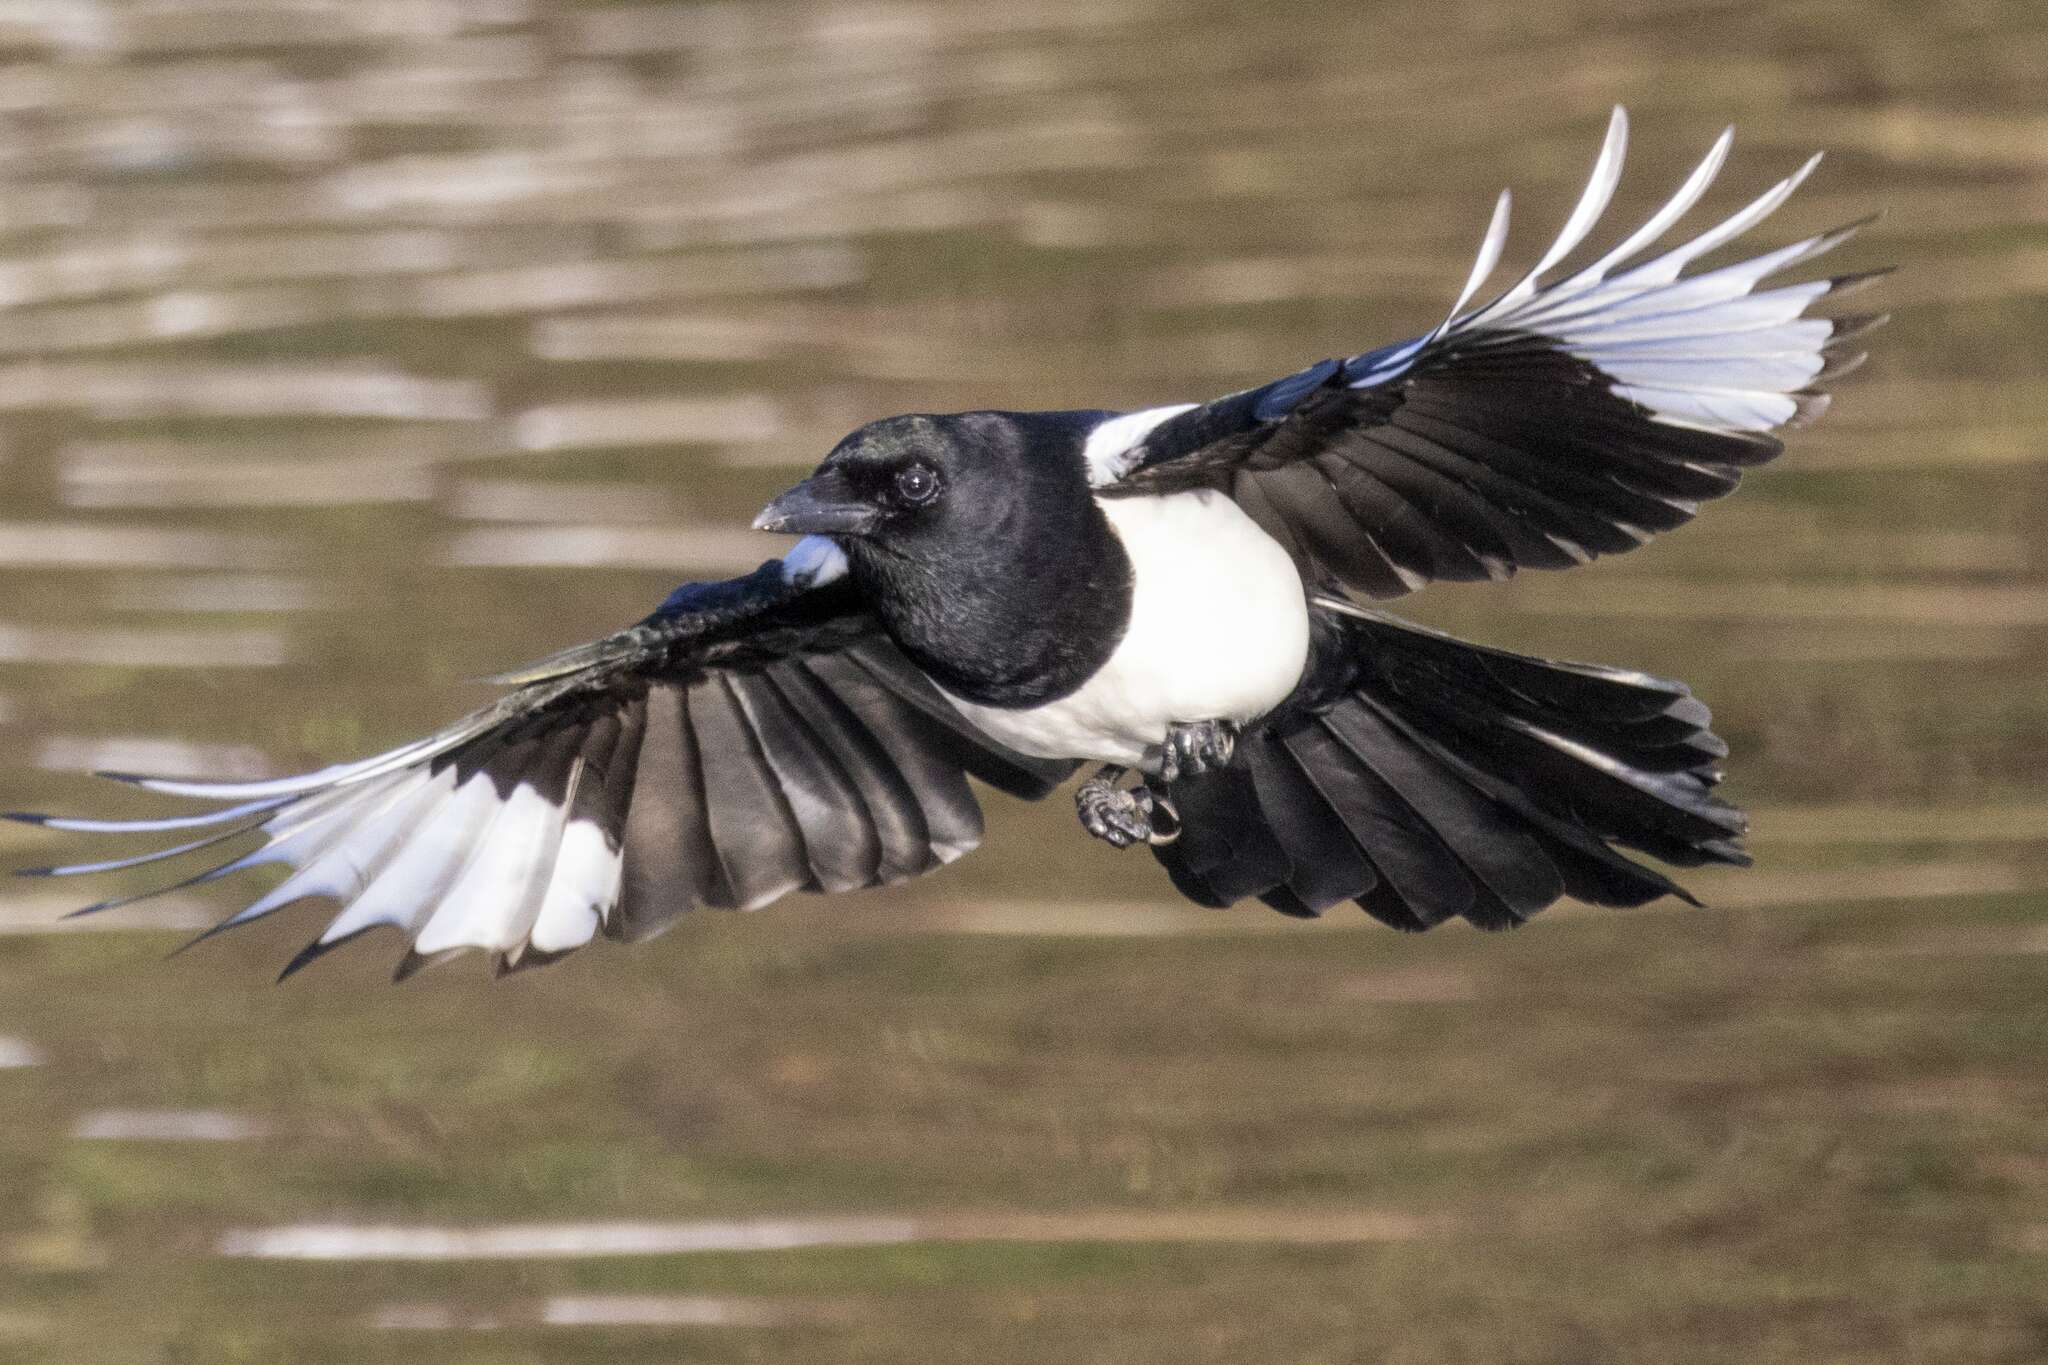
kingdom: Animalia
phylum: Chordata
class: Aves
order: Passeriformes
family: Corvidae
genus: Pica
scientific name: Pica pica
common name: Eurasian magpie
